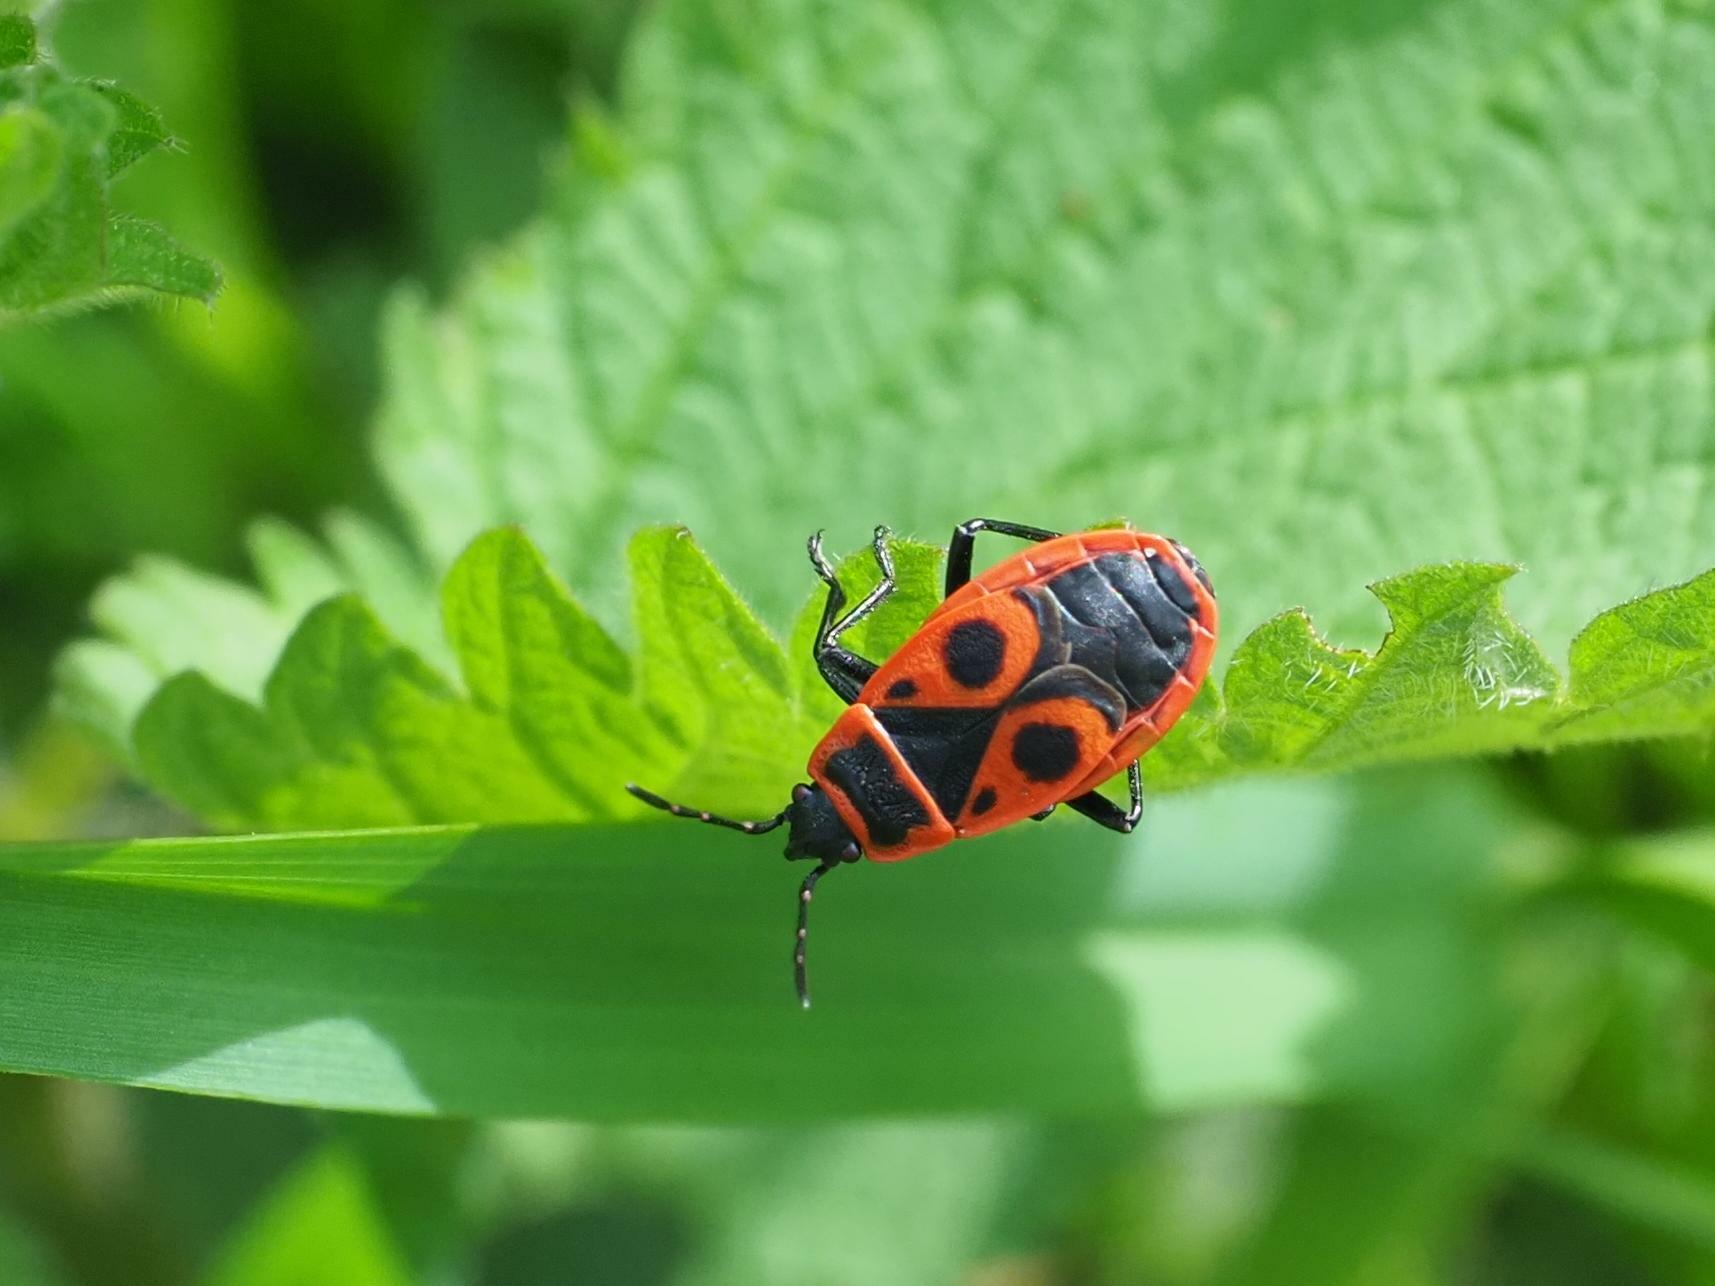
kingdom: Animalia
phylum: Arthropoda
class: Insecta
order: Hemiptera
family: Pyrrhocoridae
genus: Pyrrhocoris
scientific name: Pyrrhocoris apterus
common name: Firebug
